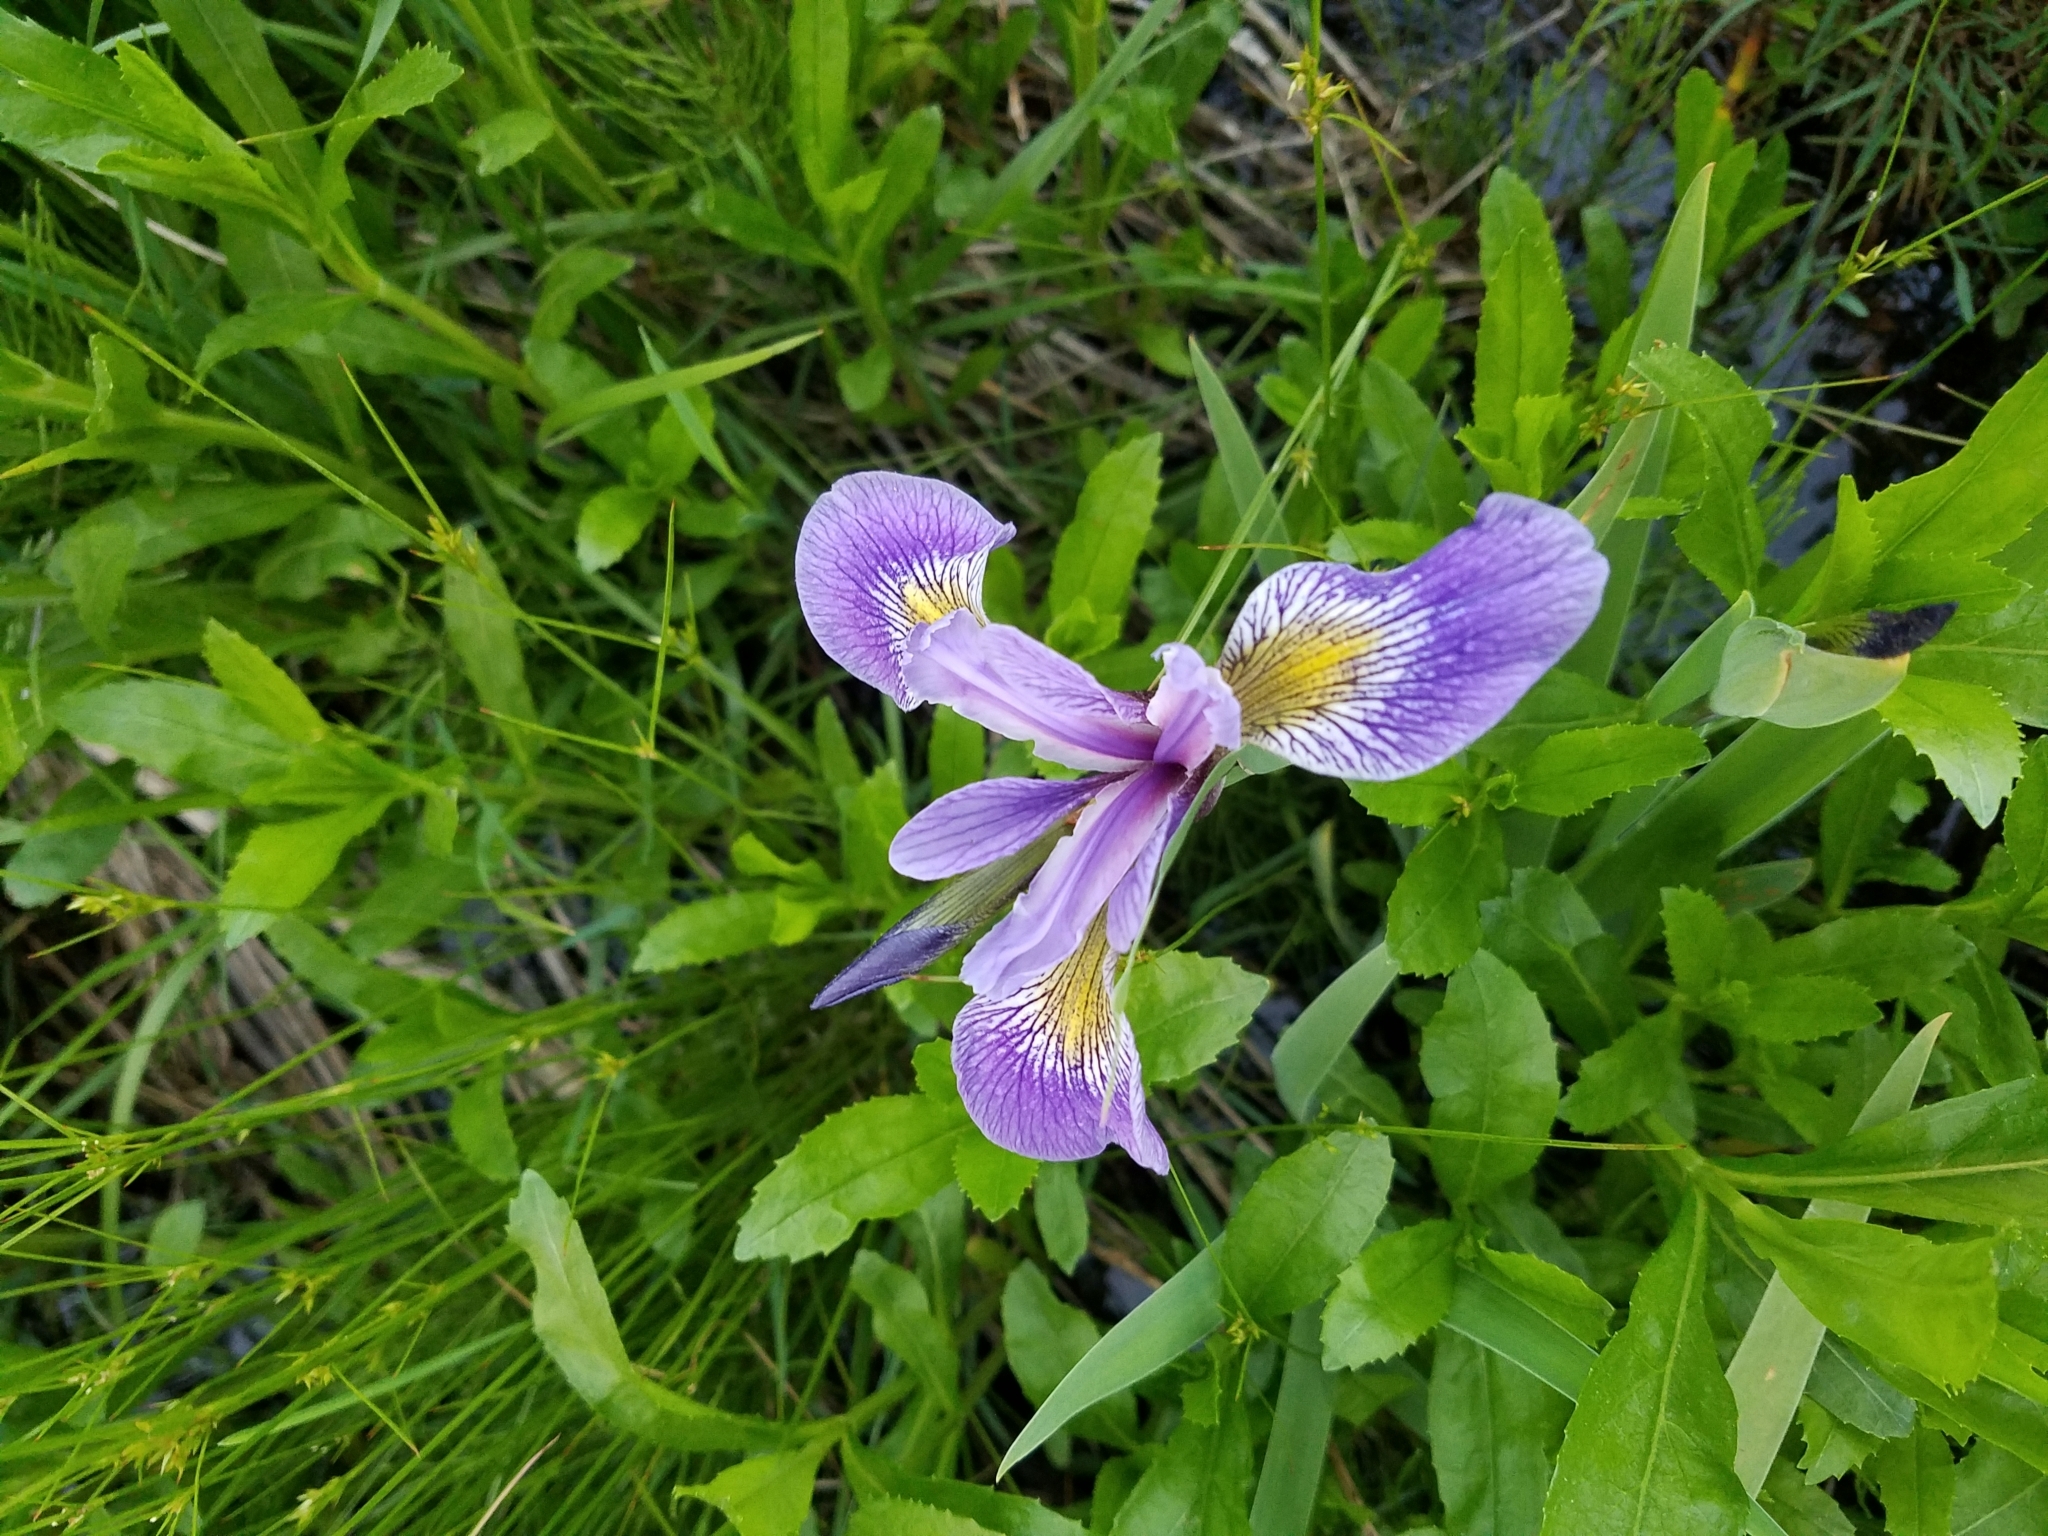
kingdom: Plantae
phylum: Tracheophyta
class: Liliopsida
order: Asparagales
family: Iridaceae
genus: Iris
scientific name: Iris versicolor
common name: Purple iris
